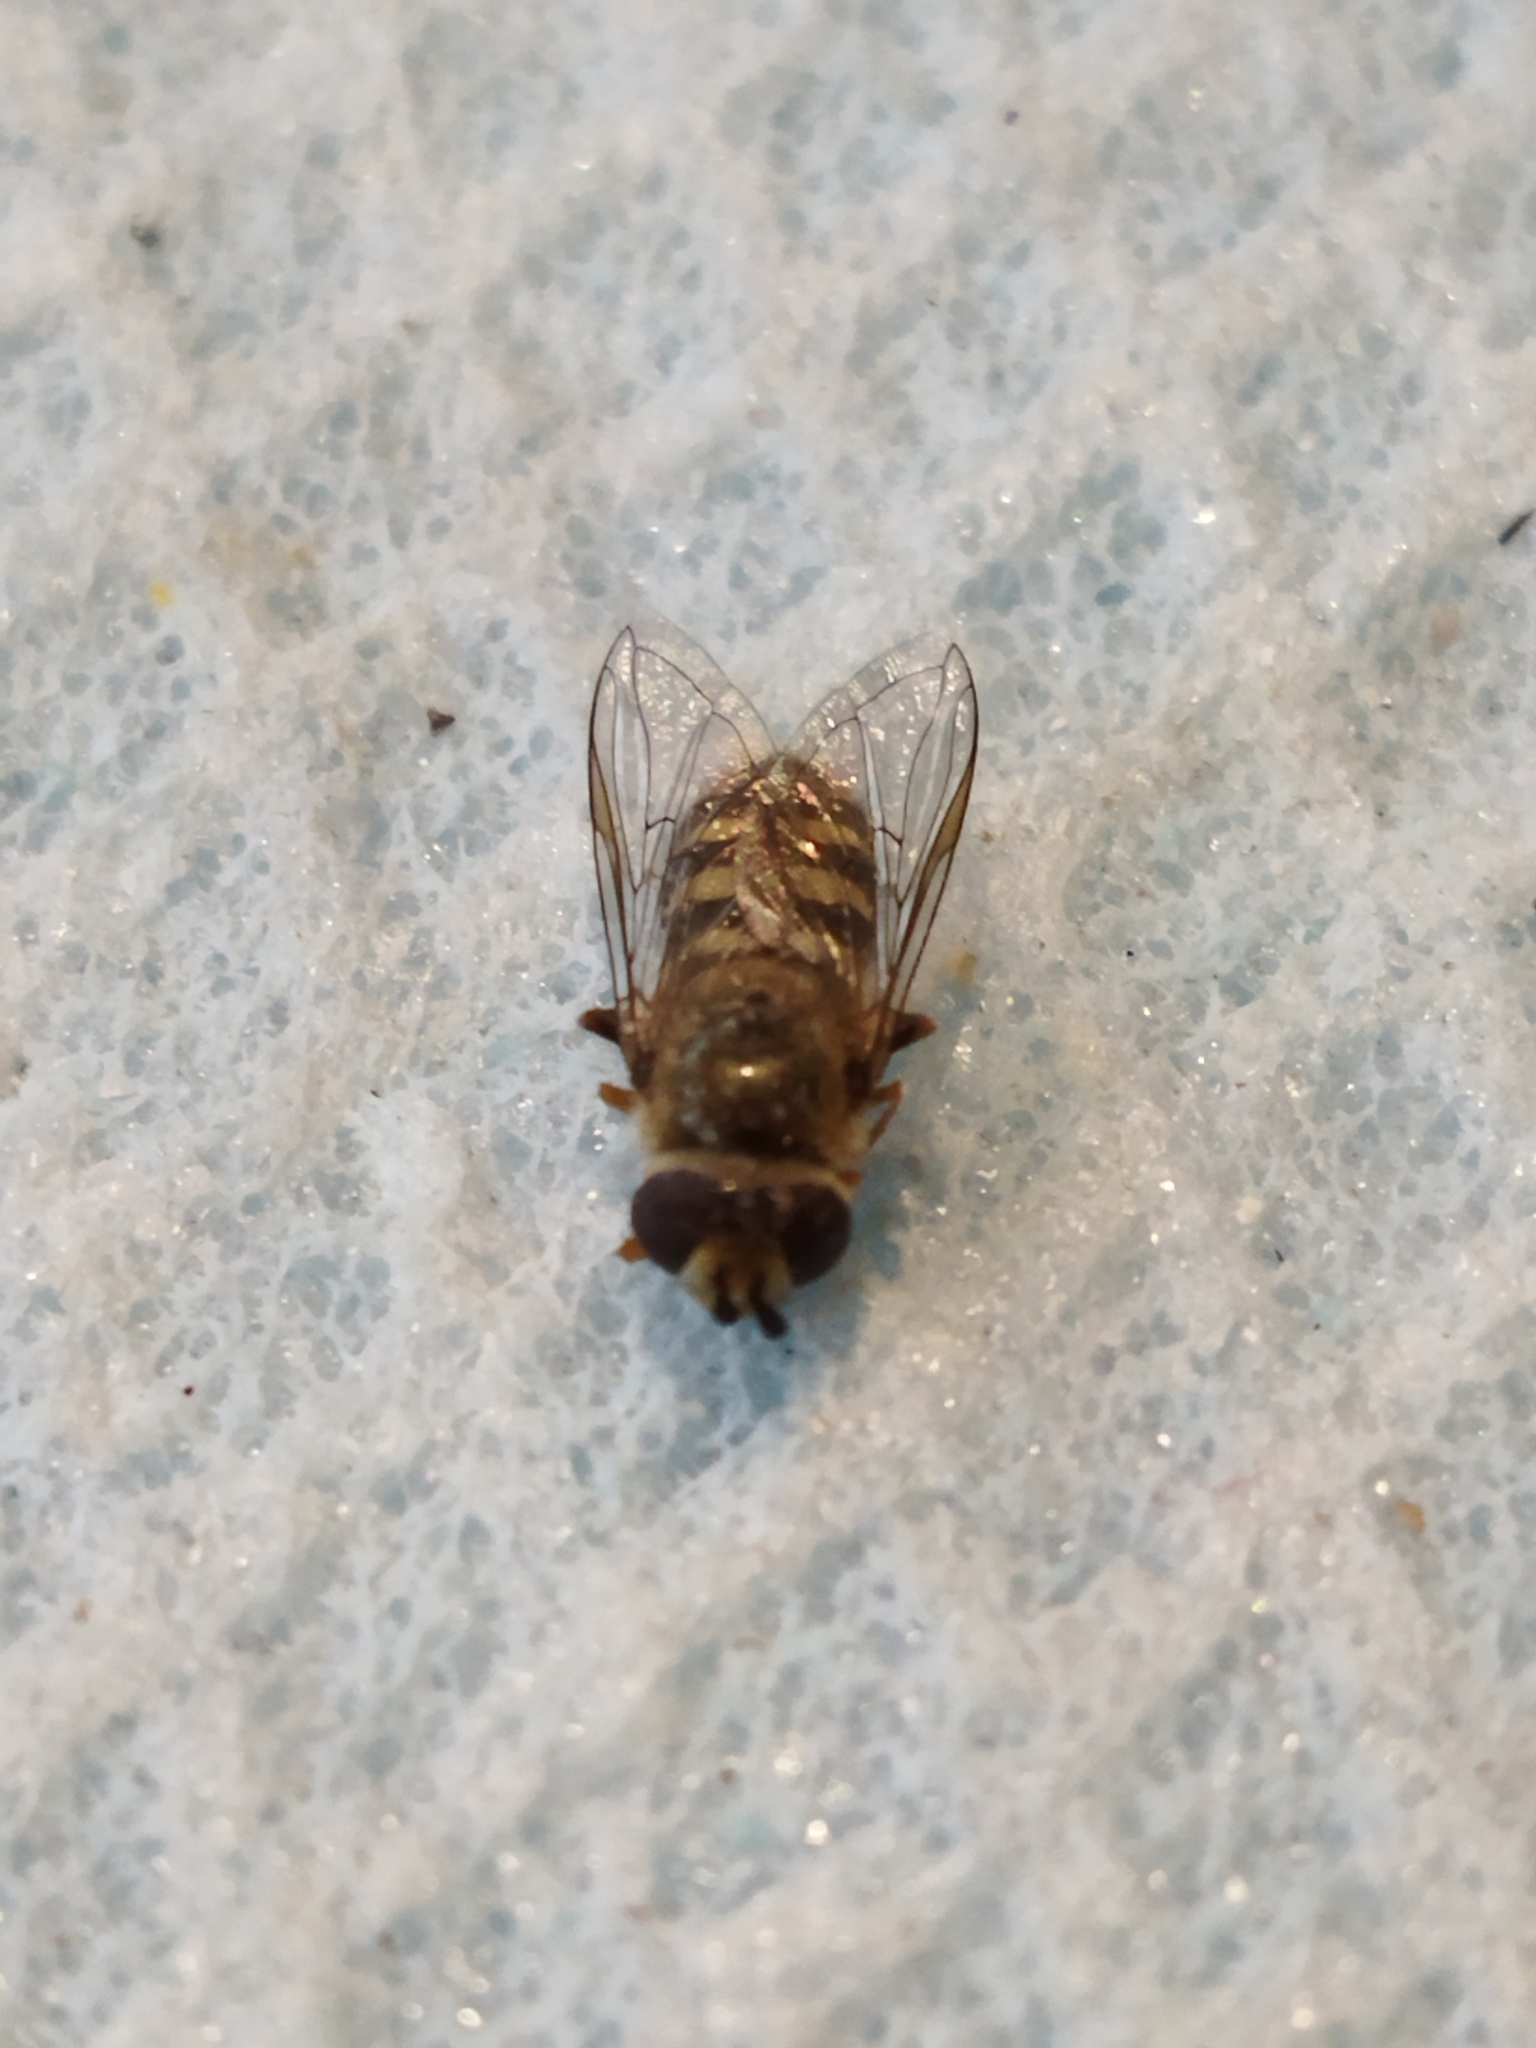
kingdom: Animalia
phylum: Arthropoda
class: Insecta
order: Diptera
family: Syrphidae
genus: Eupeodes
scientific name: Eupeodes corollae
